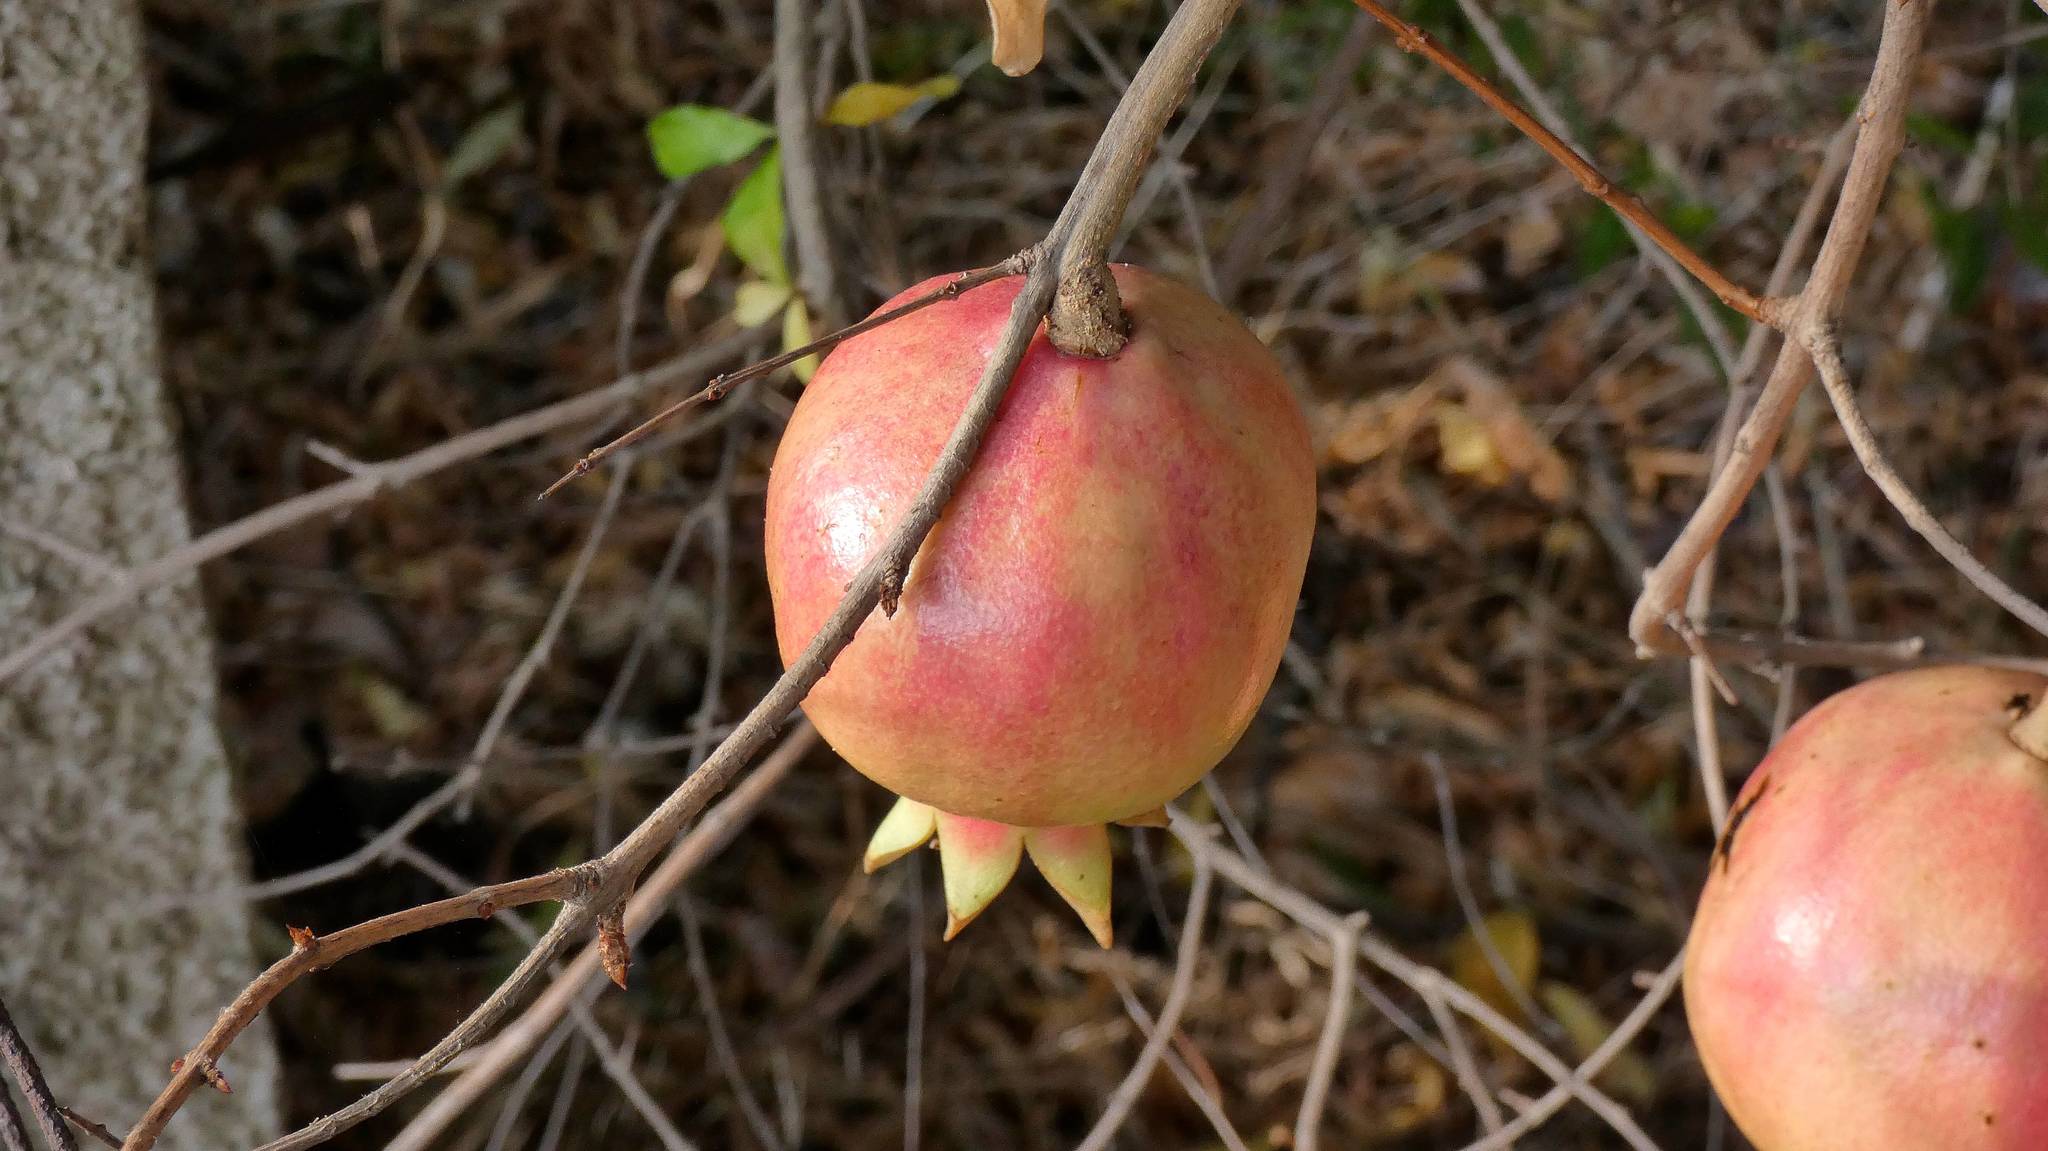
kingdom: Plantae
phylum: Tracheophyta
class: Magnoliopsida
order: Myrtales
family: Lythraceae
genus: Punica
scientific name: Punica granatum
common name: Pomegranate
